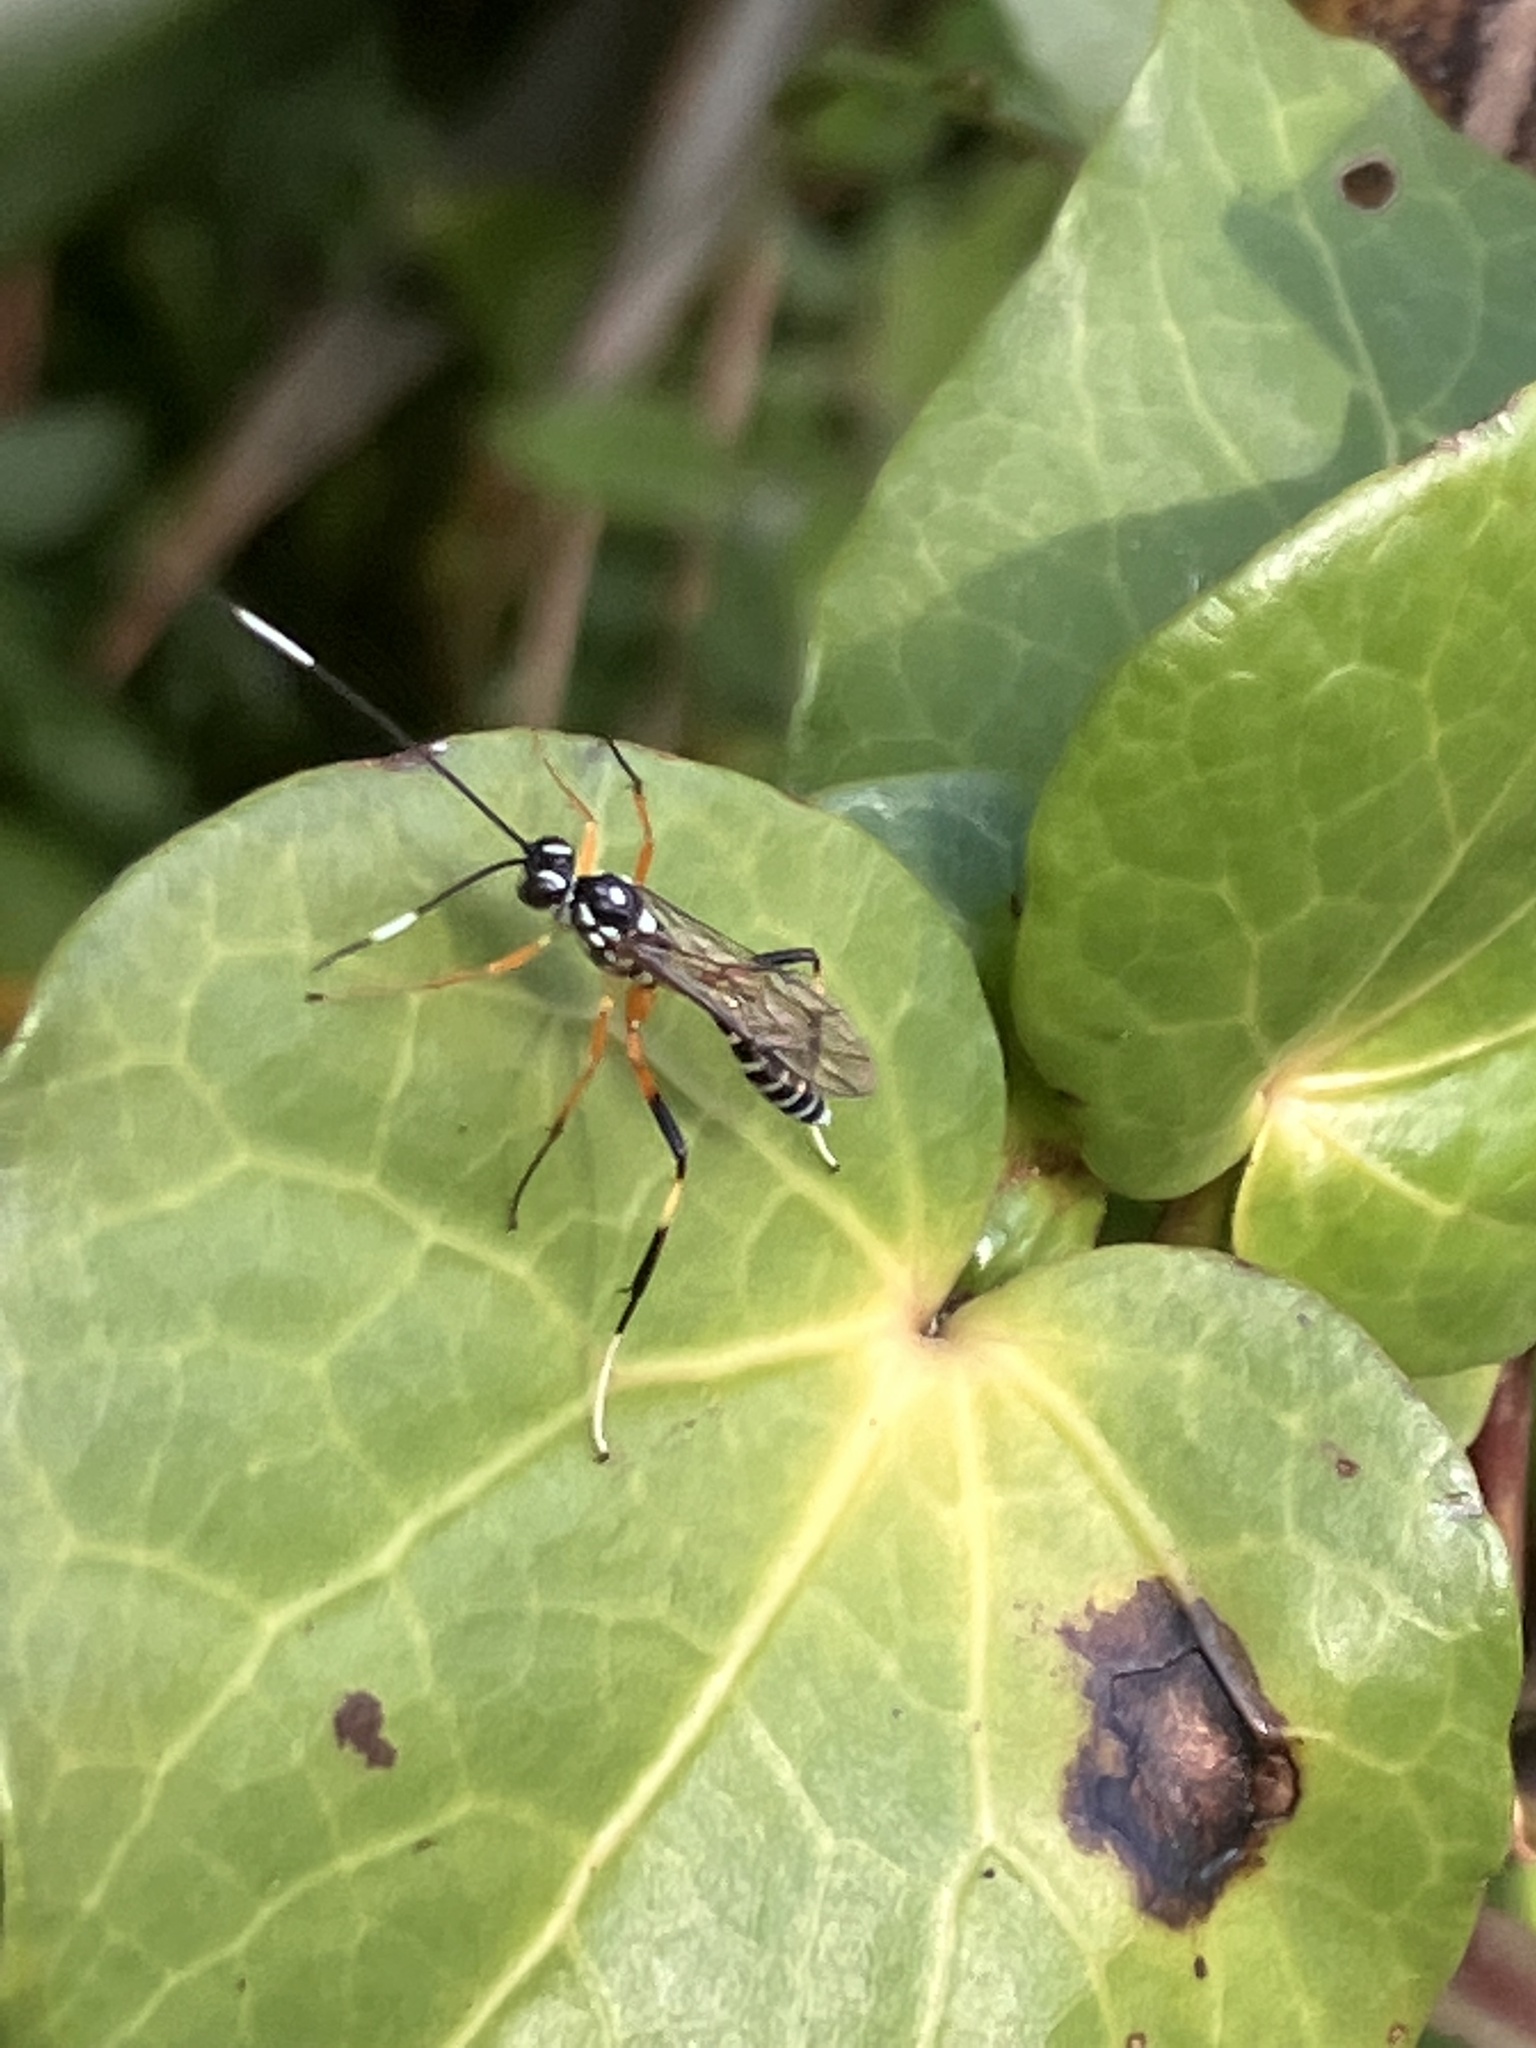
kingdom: Animalia
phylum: Arthropoda
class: Insecta
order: Hymenoptera
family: Ichneumonidae
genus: Xanthocryptus
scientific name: Xanthocryptus novozealandicus
